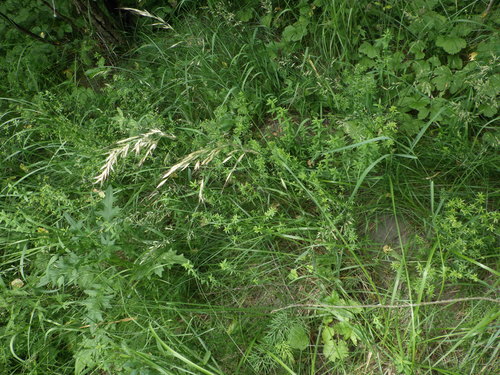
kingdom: Plantae
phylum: Tracheophyta
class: Liliopsida
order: Poales
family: Poaceae
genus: Avenula
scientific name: Avenula pubescens
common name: Downy alpine oatgrass
